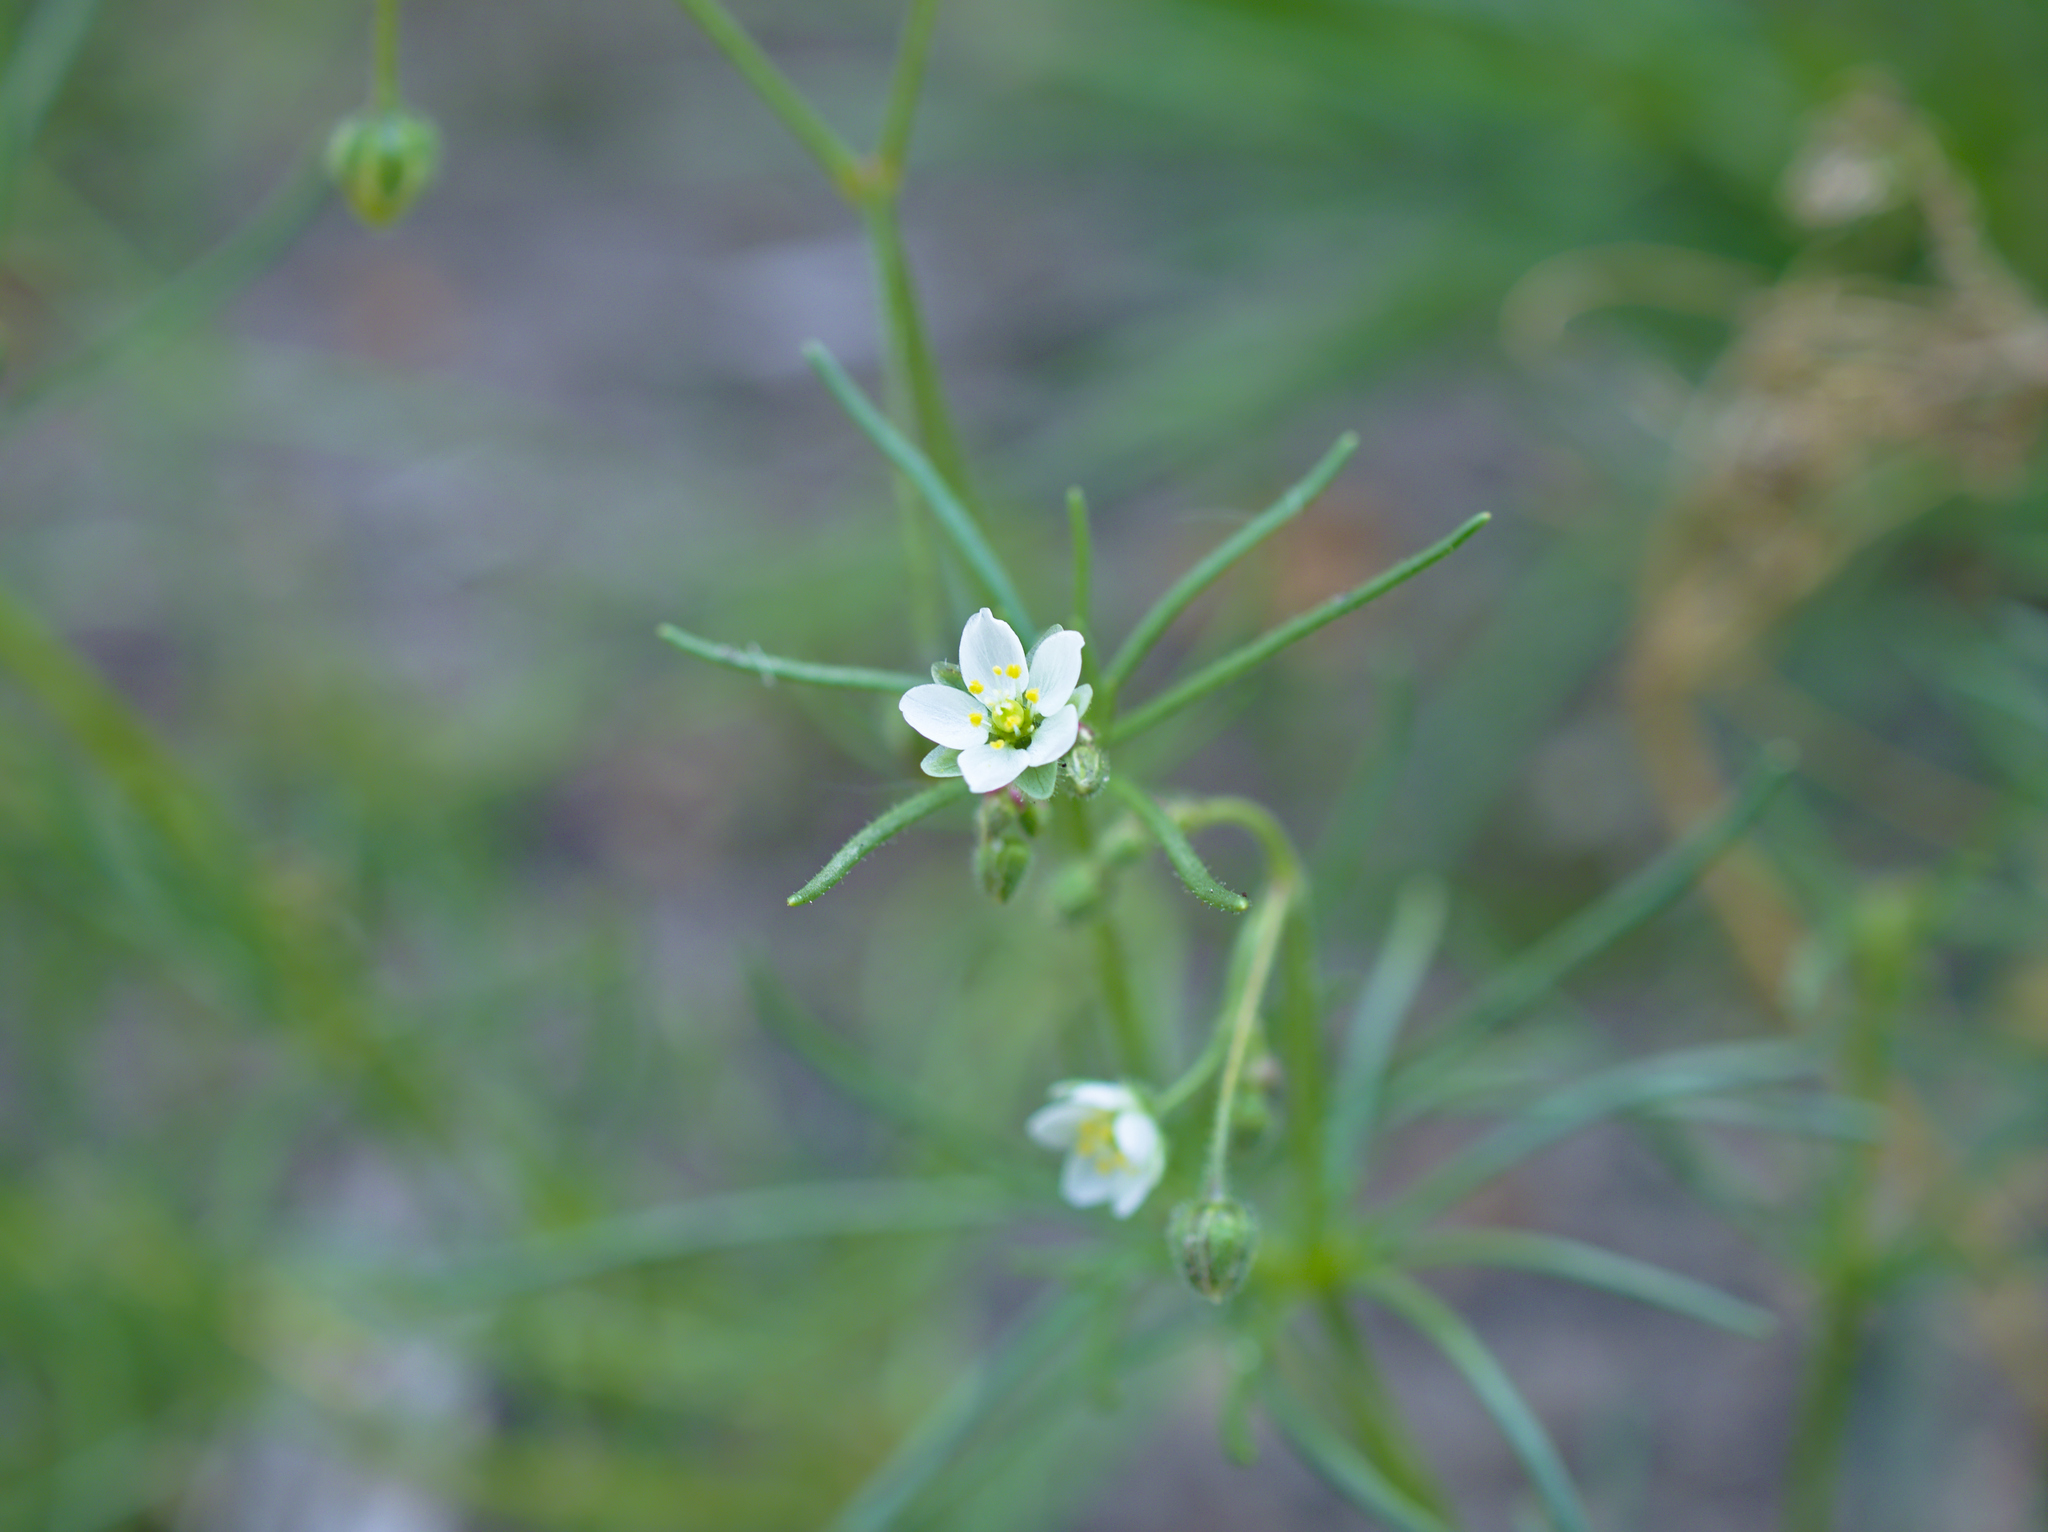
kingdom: Plantae
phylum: Tracheophyta
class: Magnoliopsida
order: Caryophyllales
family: Caryophyllaceae
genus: Spergula
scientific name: Spergula arvensis
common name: Corn spurrey
